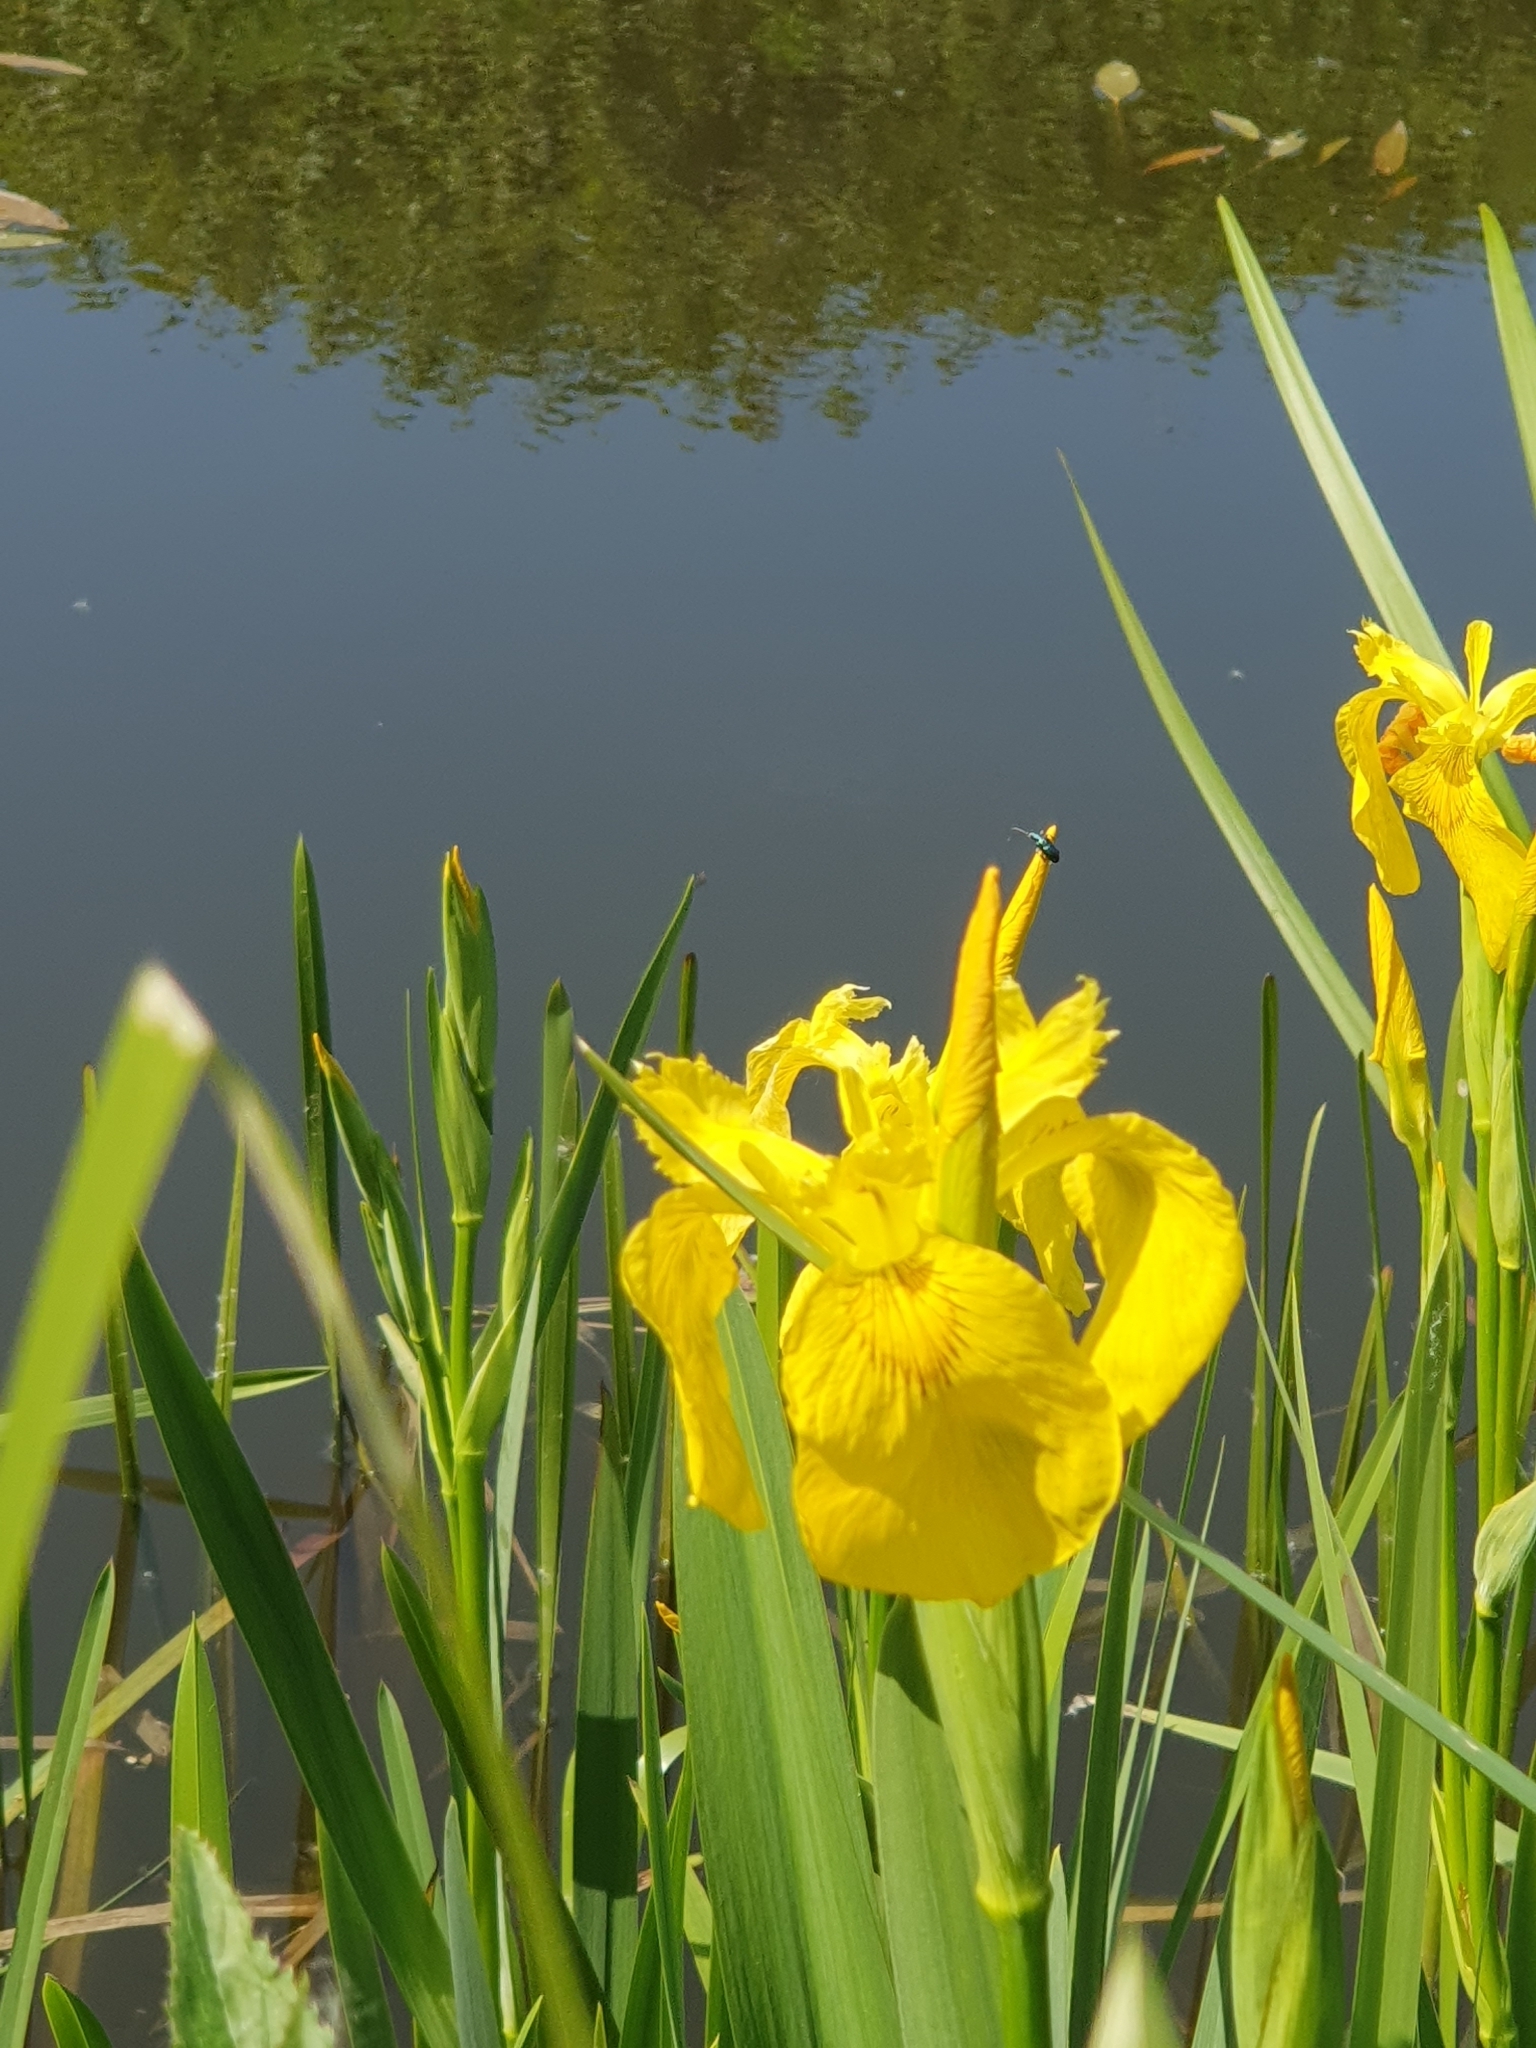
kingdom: Plantae
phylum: Tracheophyta
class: Liliopsida
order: Asparagales
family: Iridaceae
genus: Iris
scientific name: Iris pseudacorus
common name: Yellow flag
